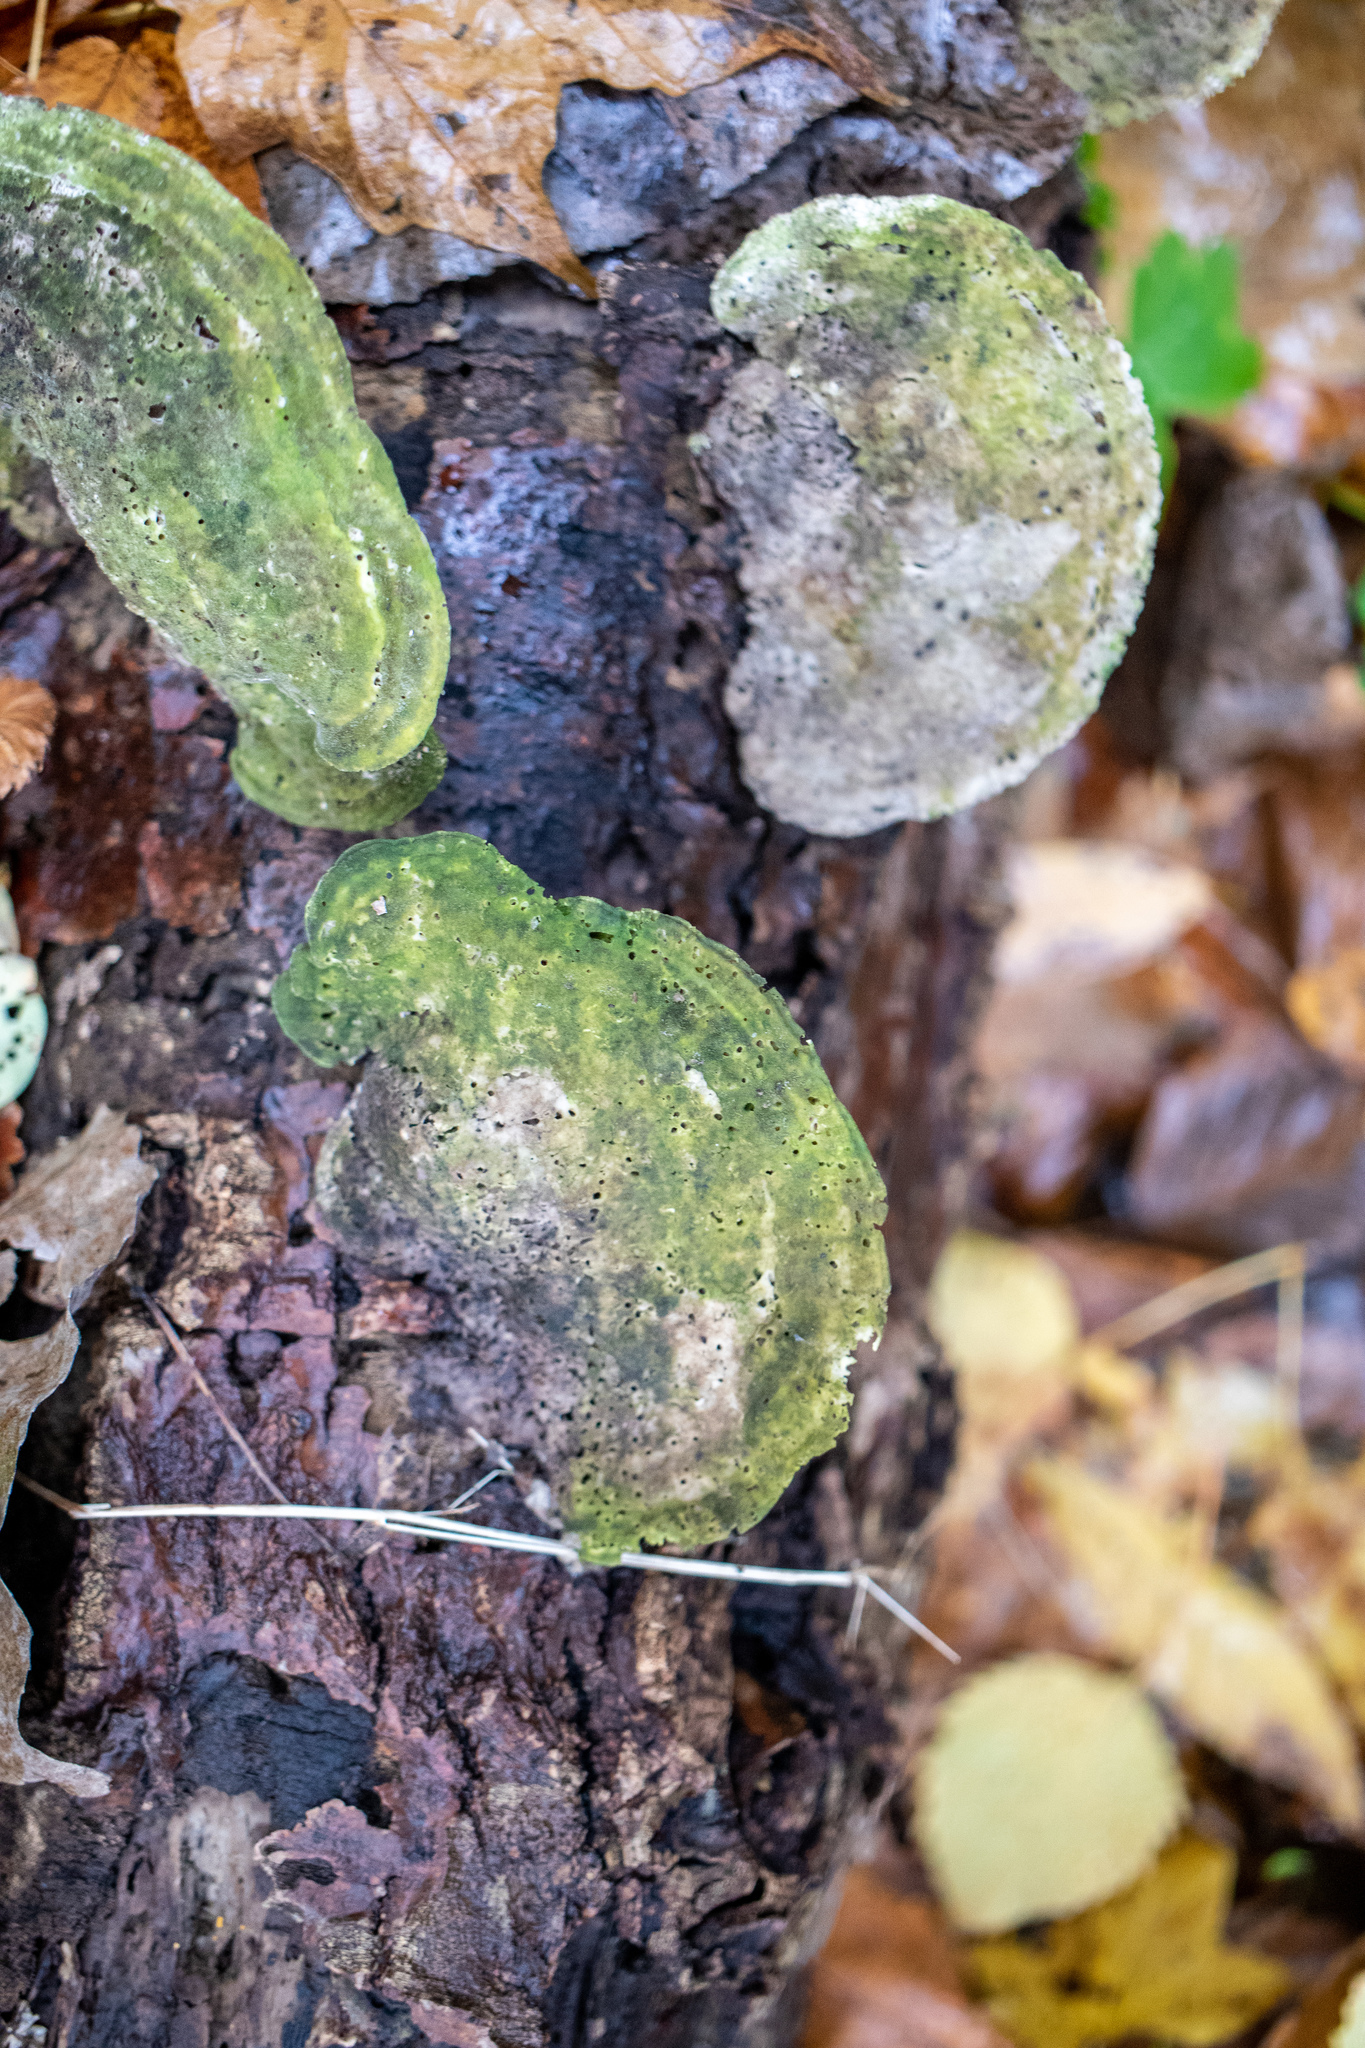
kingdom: Fungi
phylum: Basidiomycota
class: Agaricomycetes
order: Polyporales
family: Polyporaceae
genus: Trametes
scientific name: Trametes gibbosa
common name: Lumpy bracket
